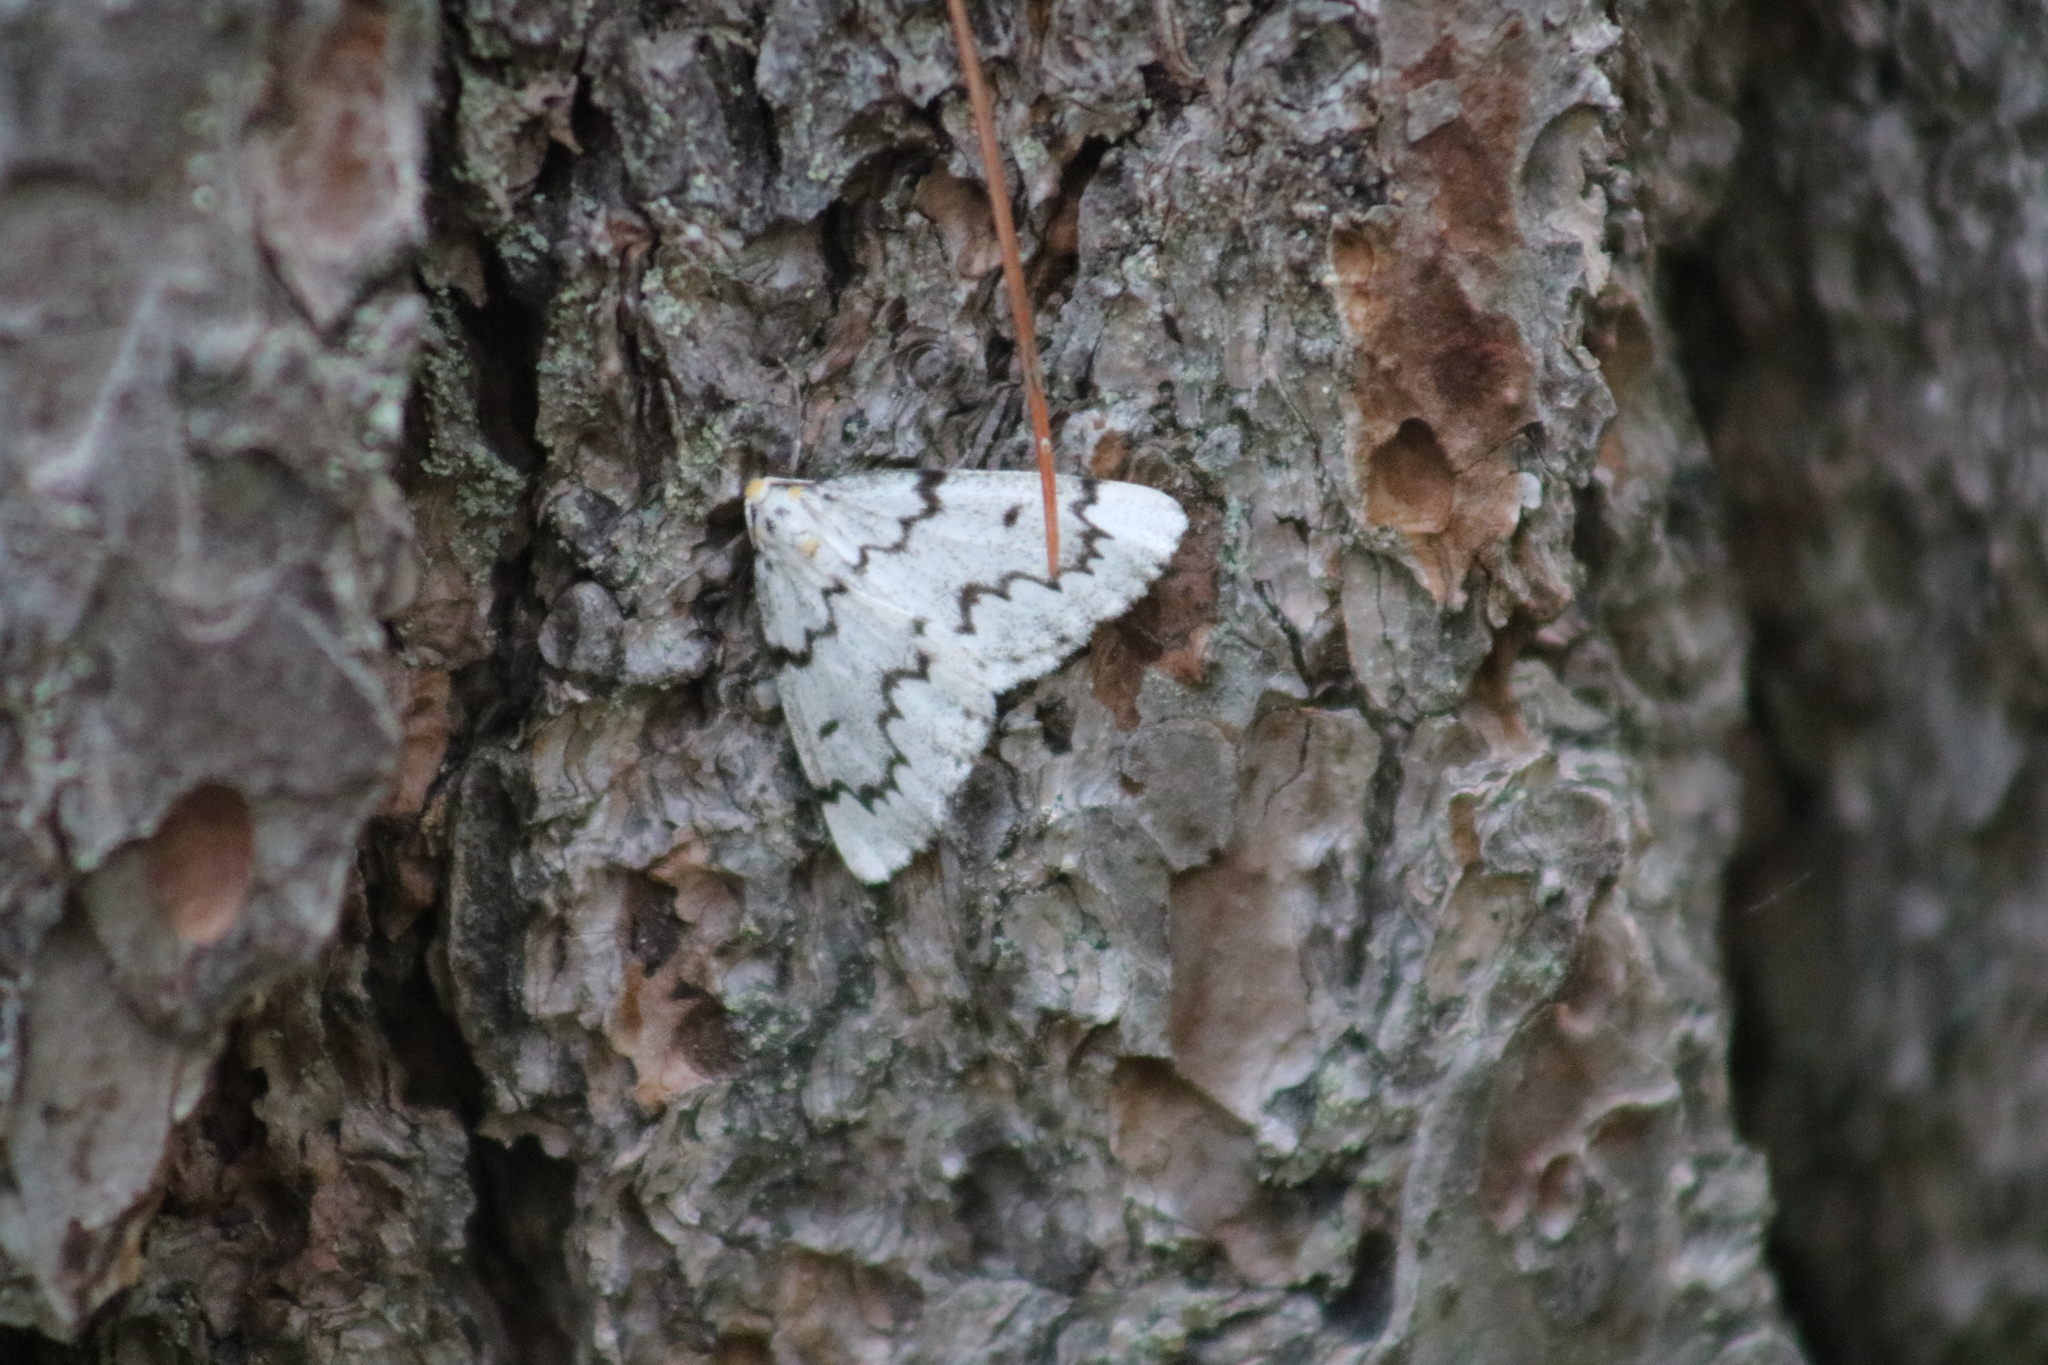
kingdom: Animalia
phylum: Arthropoda
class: Insecta
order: Lepidoptera
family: Geometridae
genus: Nepytia
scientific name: Nepytia canosaria
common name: False hemlock looper
